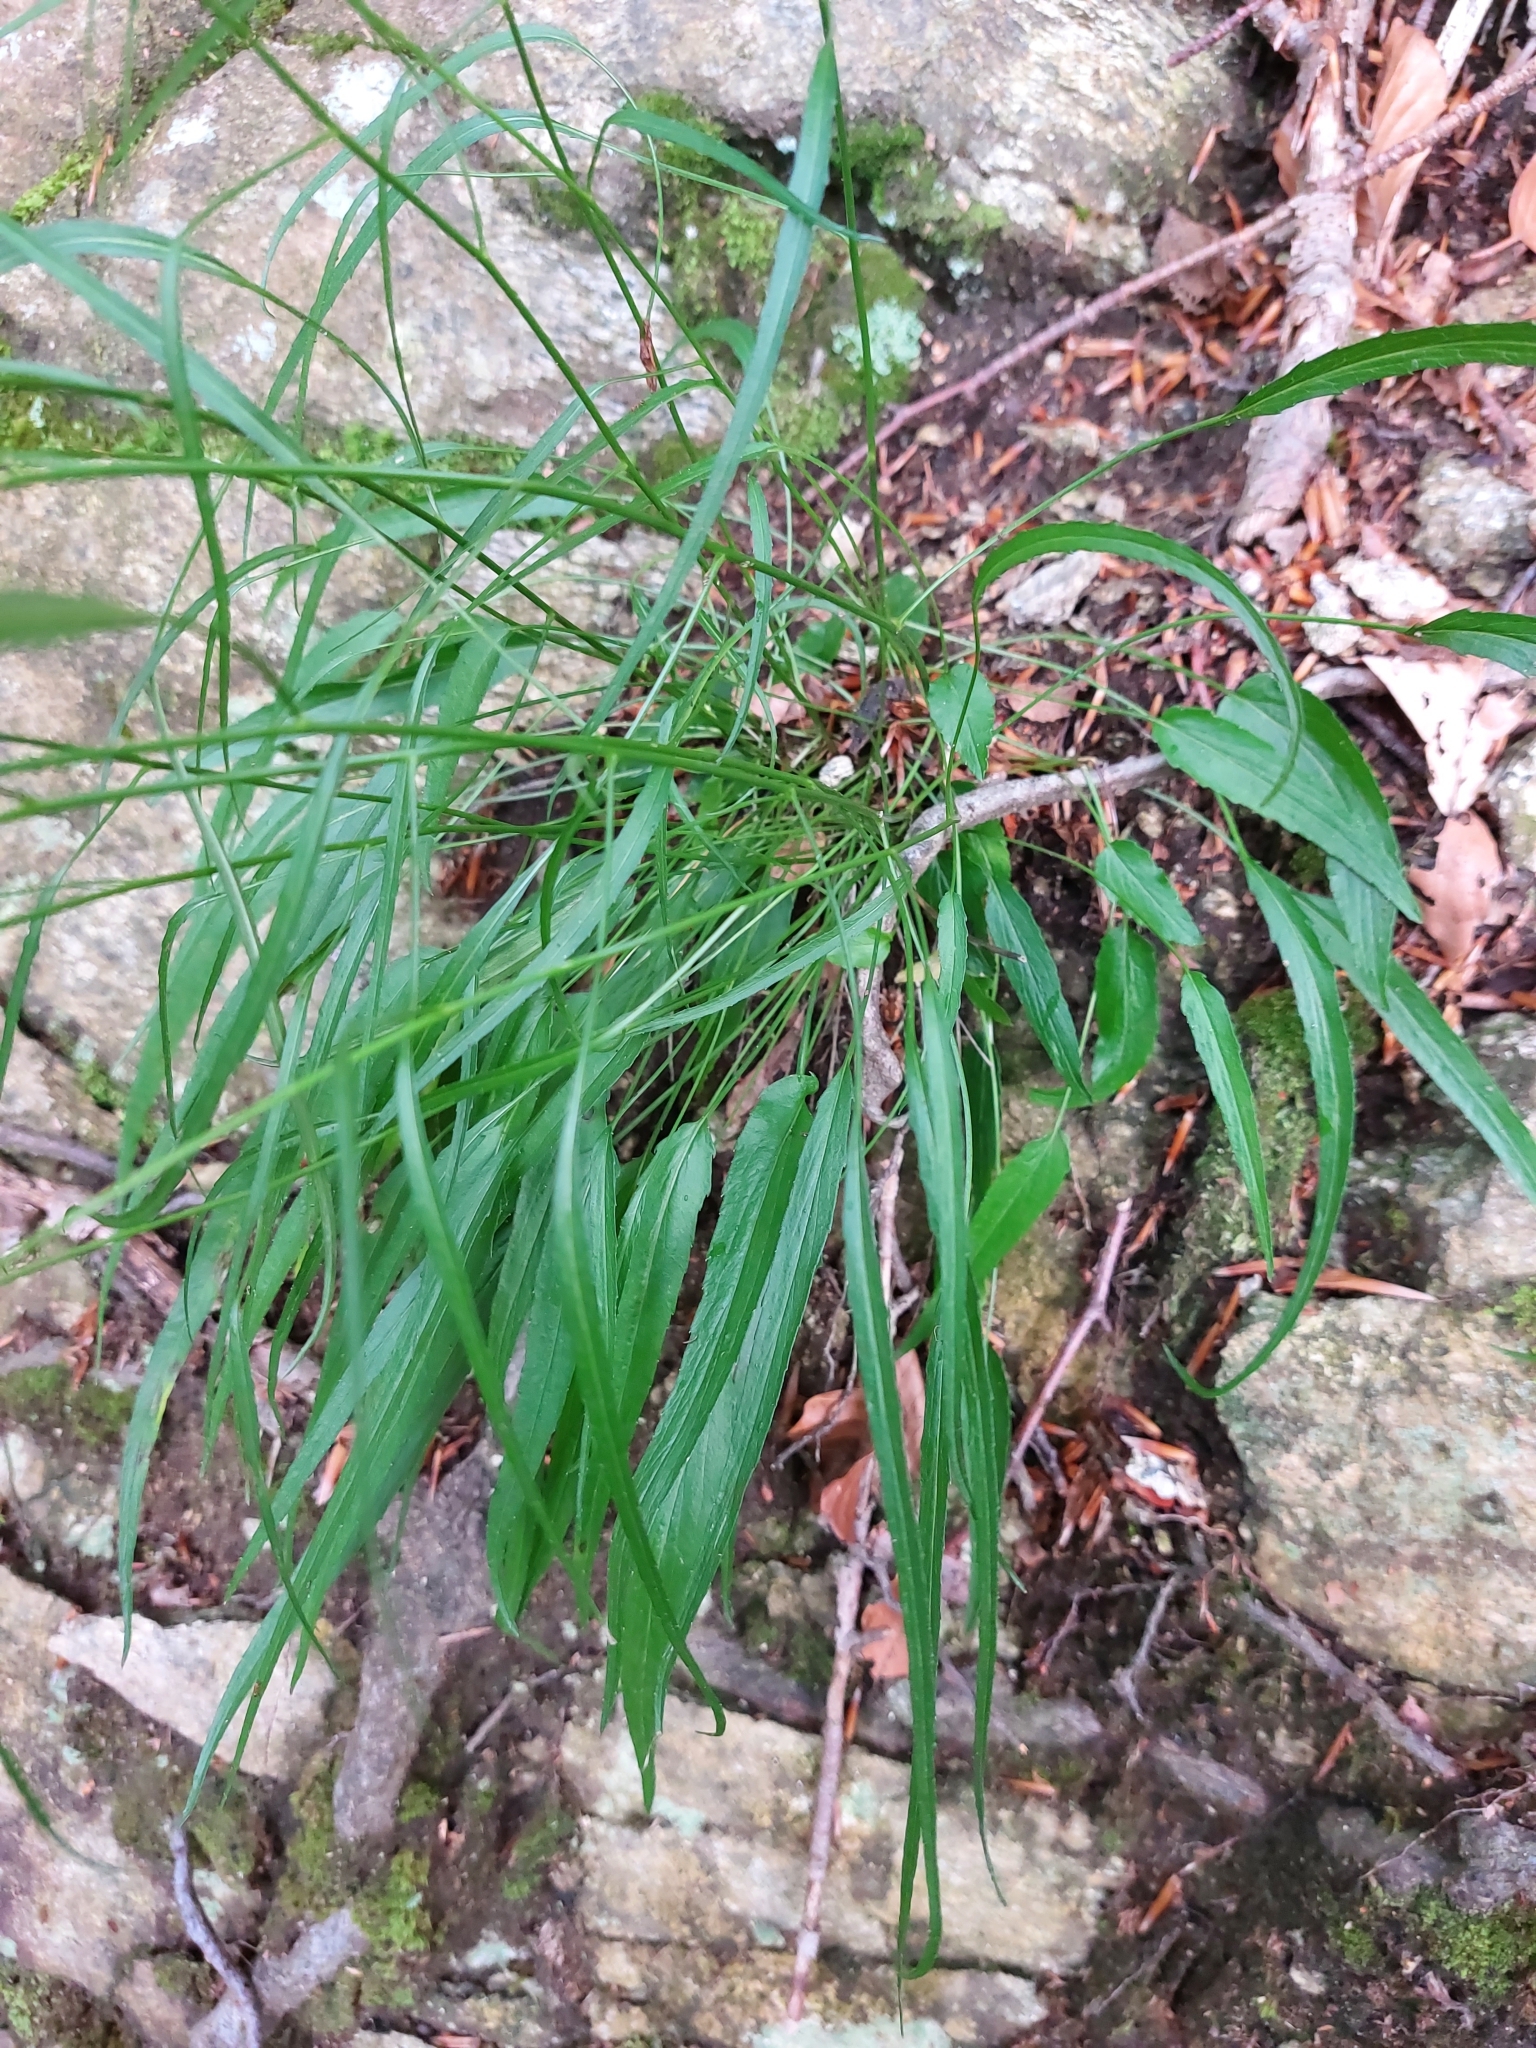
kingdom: Plantae
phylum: Tracheophyta
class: Magnoliopsida
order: Asterales
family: Campanulaceae
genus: Phyteuma
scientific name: Phyteuma scheuchzeri
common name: Oxford rampion
